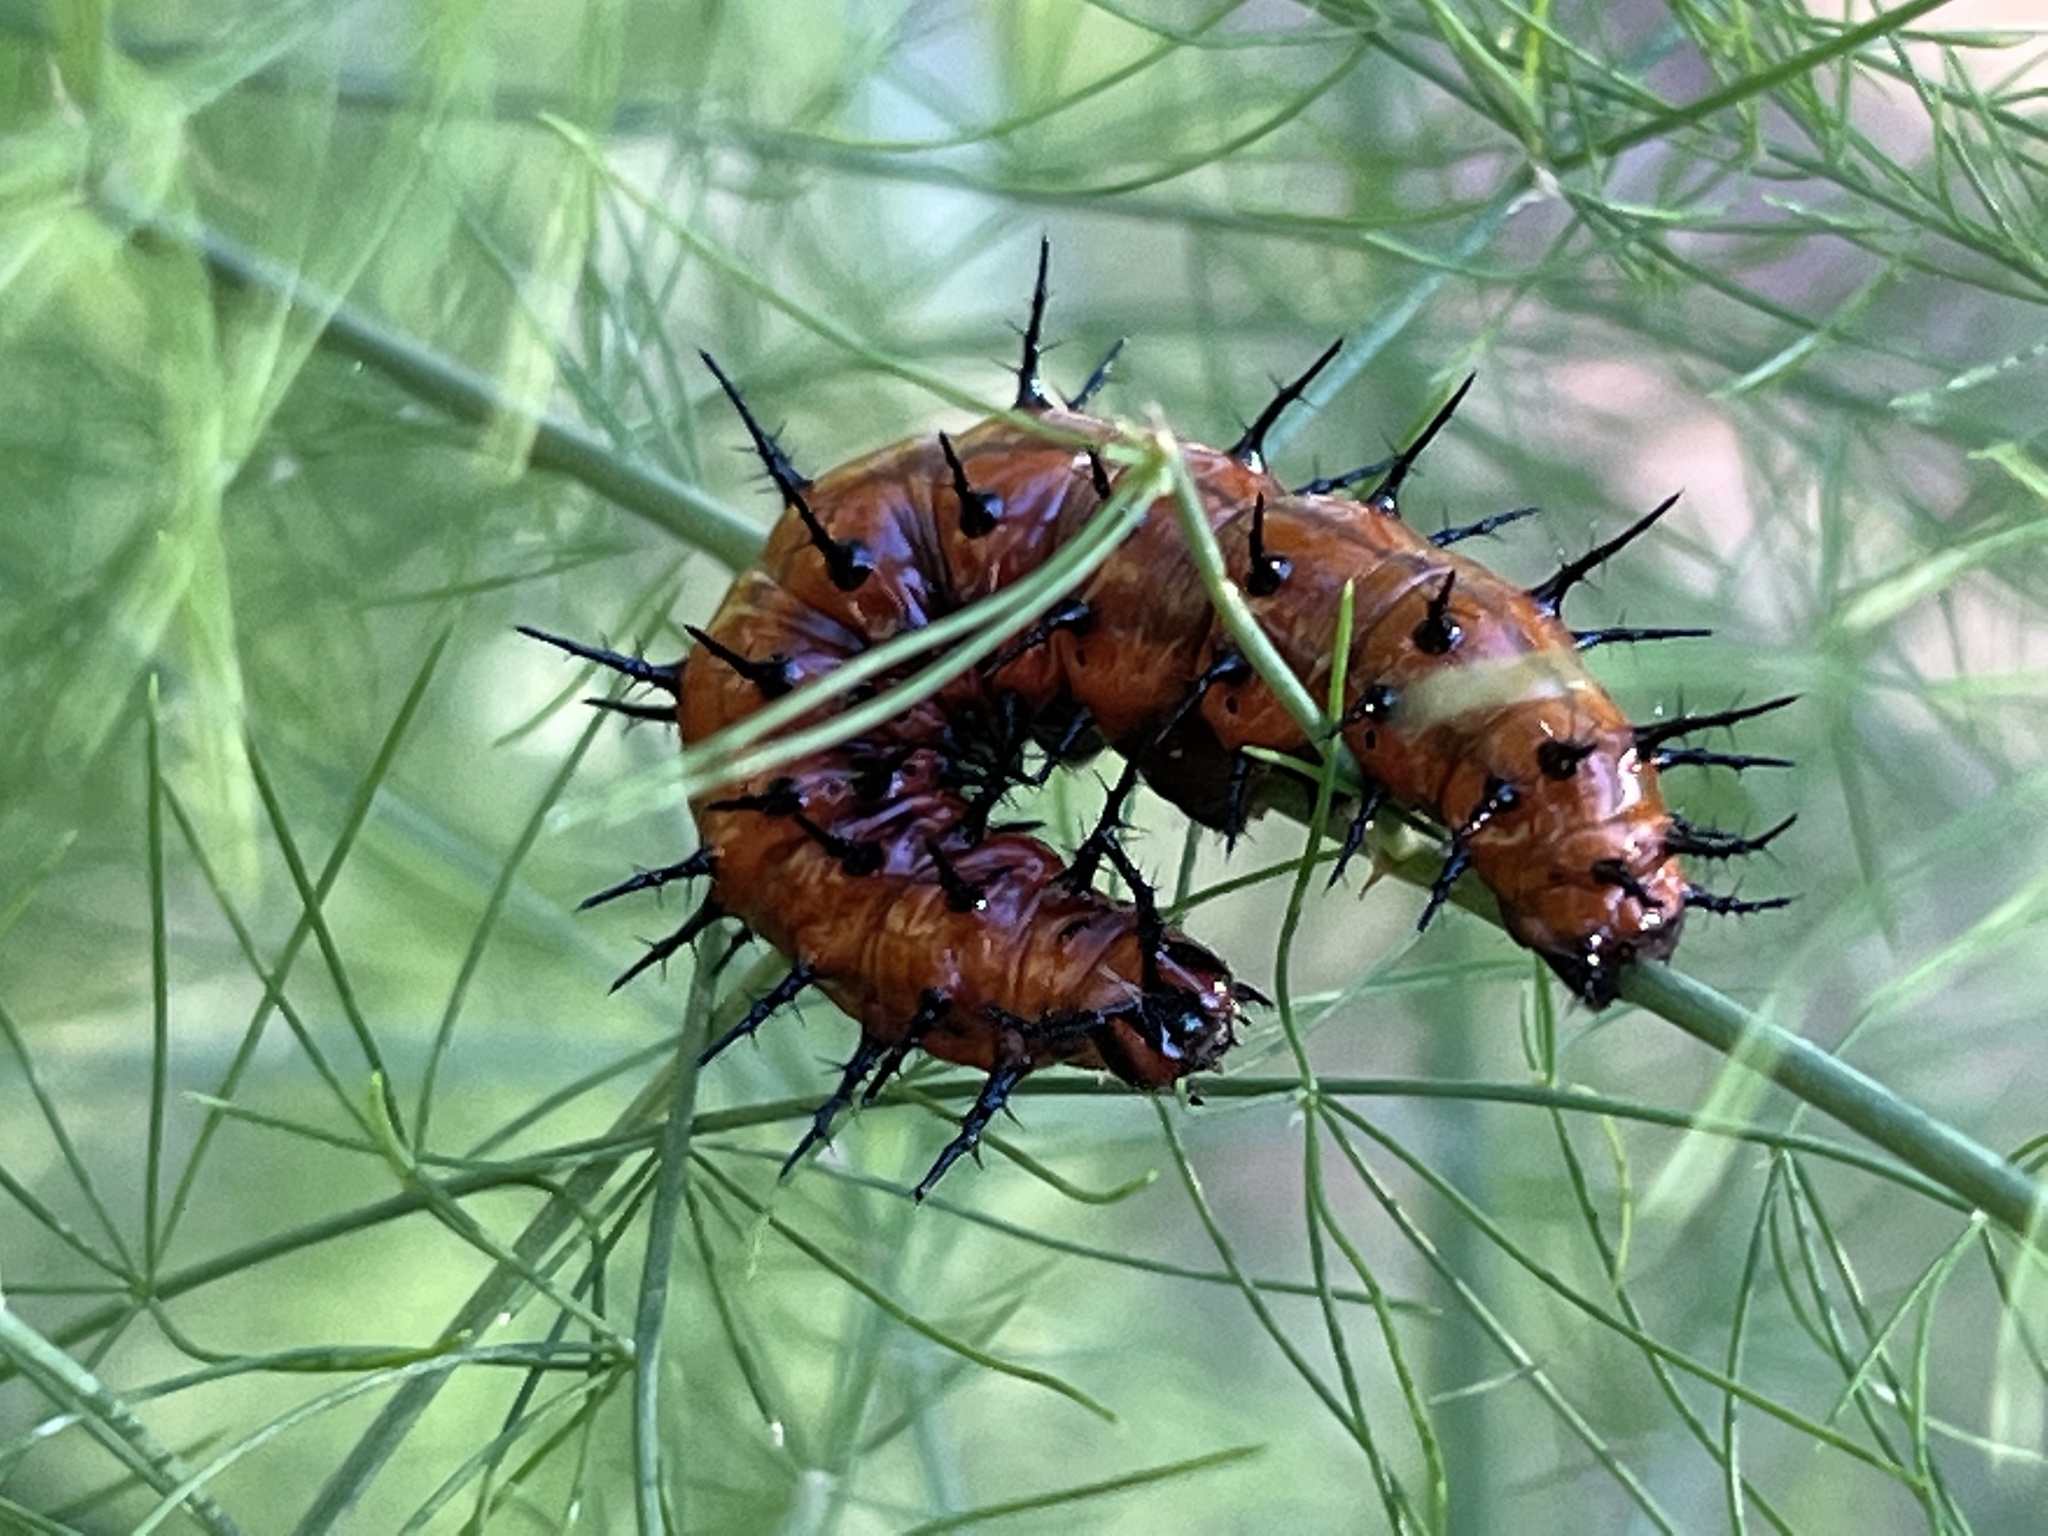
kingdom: Animalia
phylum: Arthropoda
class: Insecta
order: Lepidoptera
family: Nymphalidae
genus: Dione
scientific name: Dione vanillae
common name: Gulf fritillary
